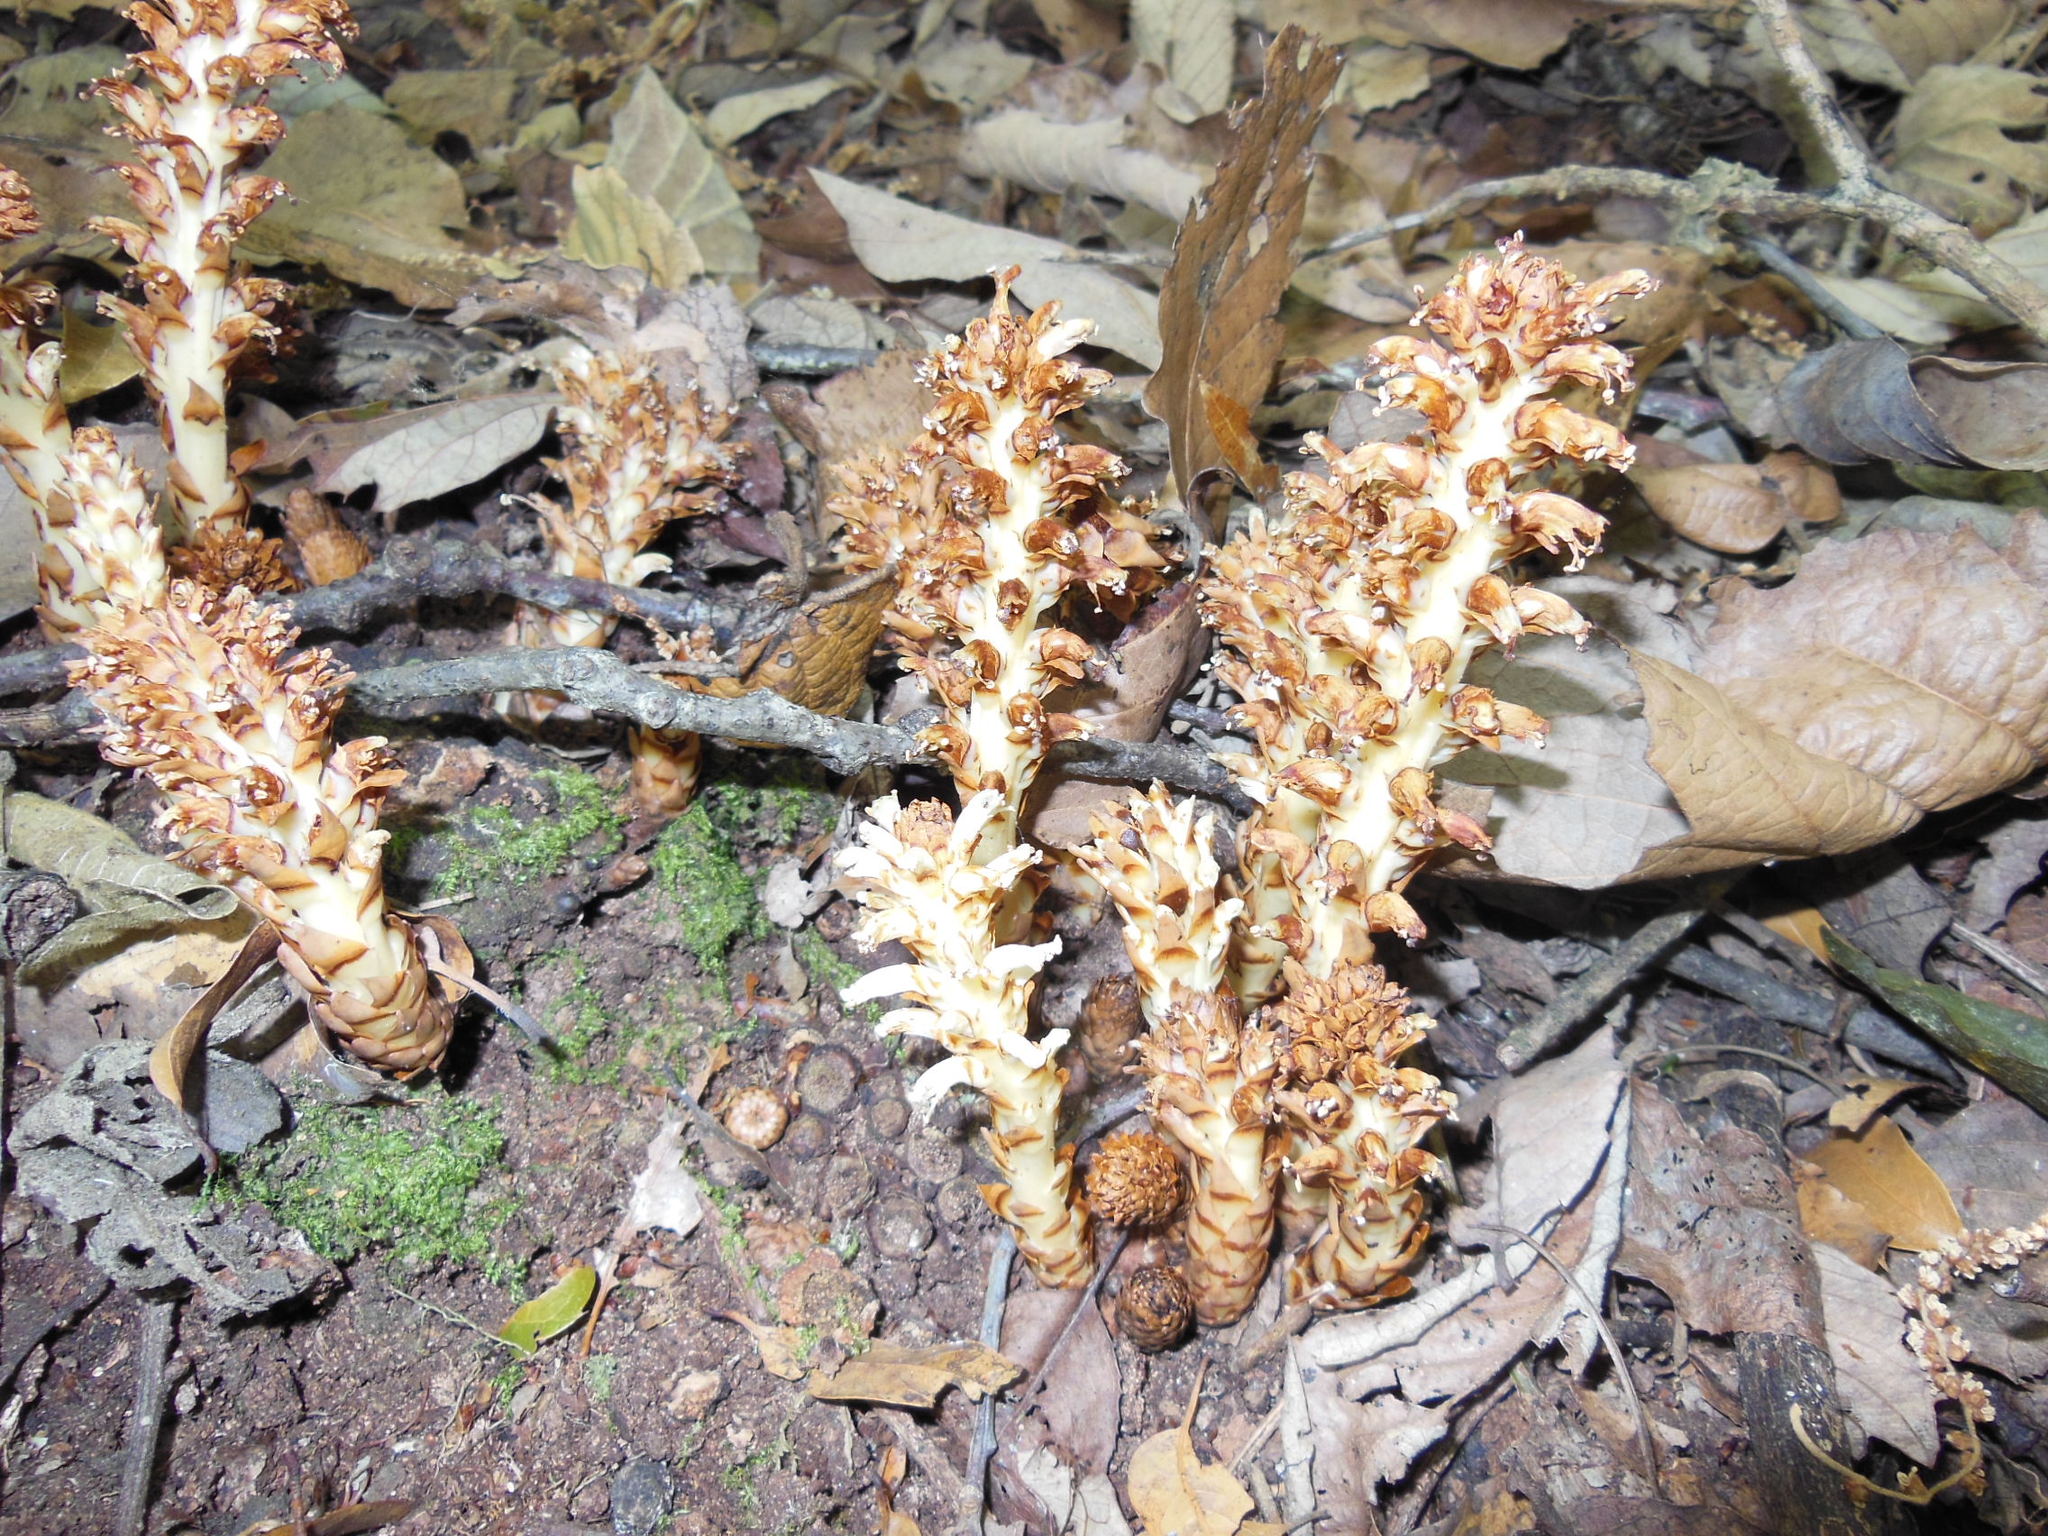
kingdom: Plantae
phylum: Tracheophyta
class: Magnoliopsida
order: Lamiales
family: Orobanchaceae
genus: Conopholis
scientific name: Conopholis alpina
